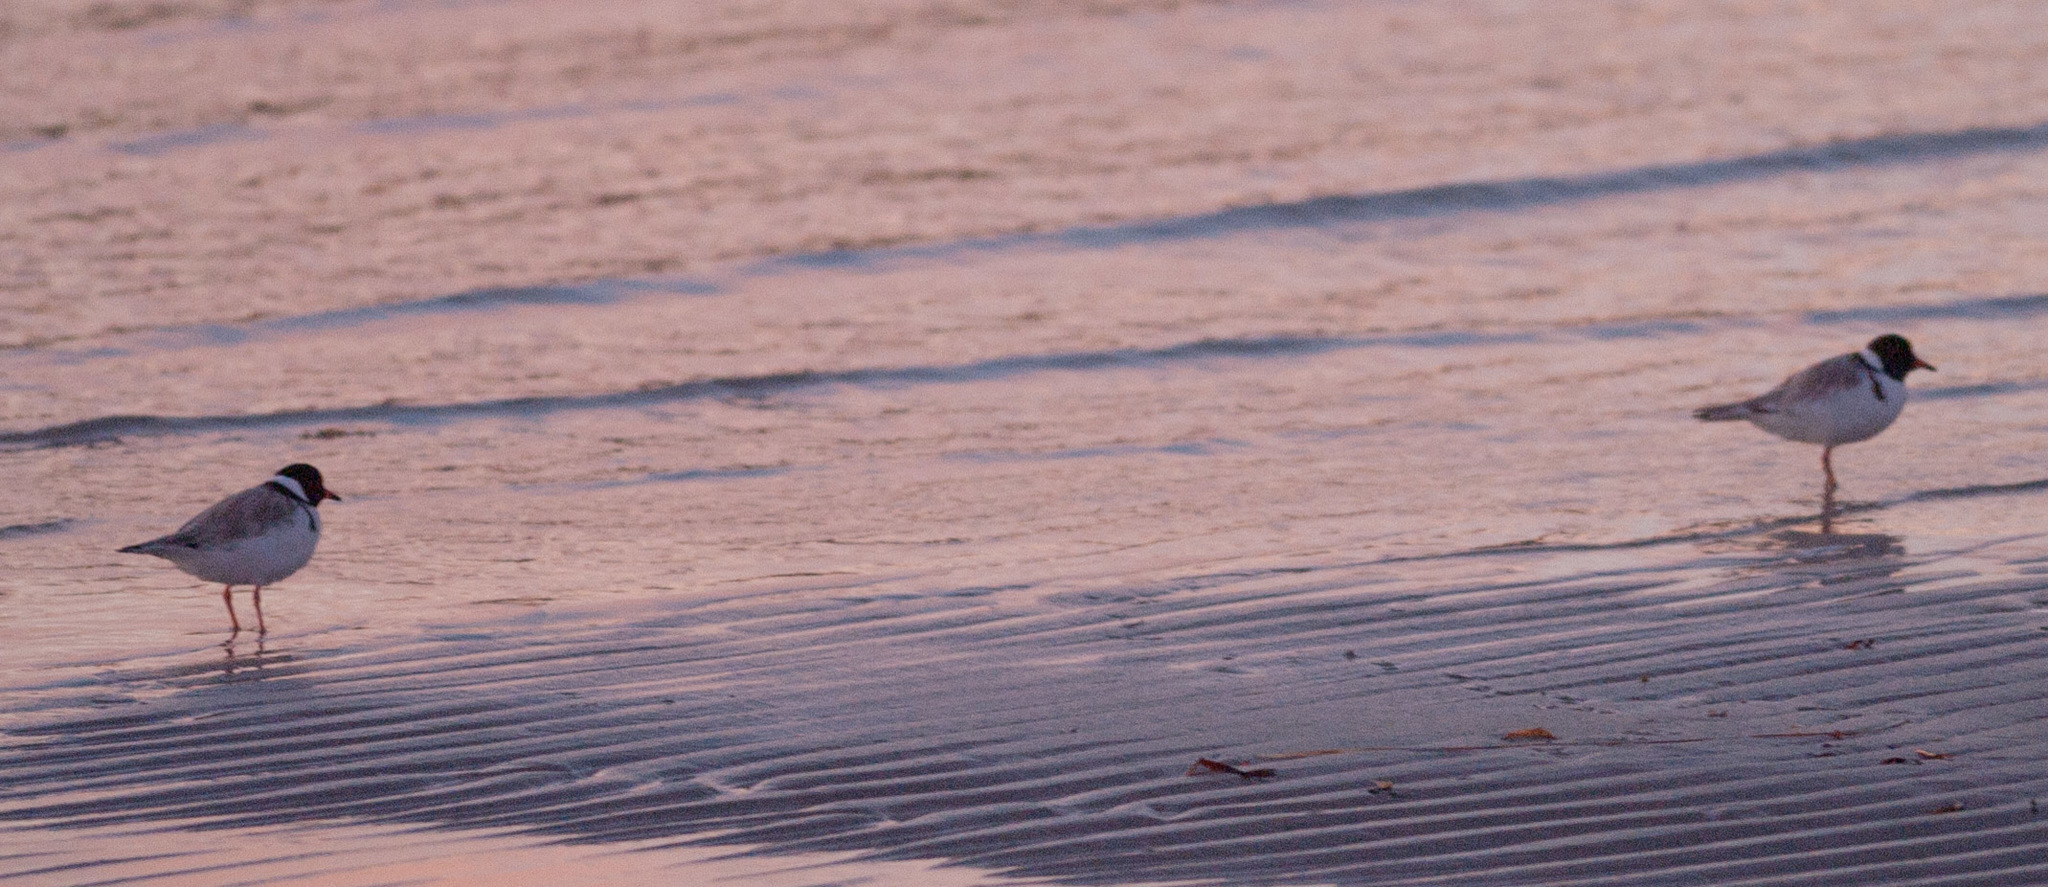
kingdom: Animalia
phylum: Chordata
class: Aves
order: Charadriiformes
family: Charadriidae
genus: Thinornis
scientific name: Thinornis cucullatus
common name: Hooded dotterel
